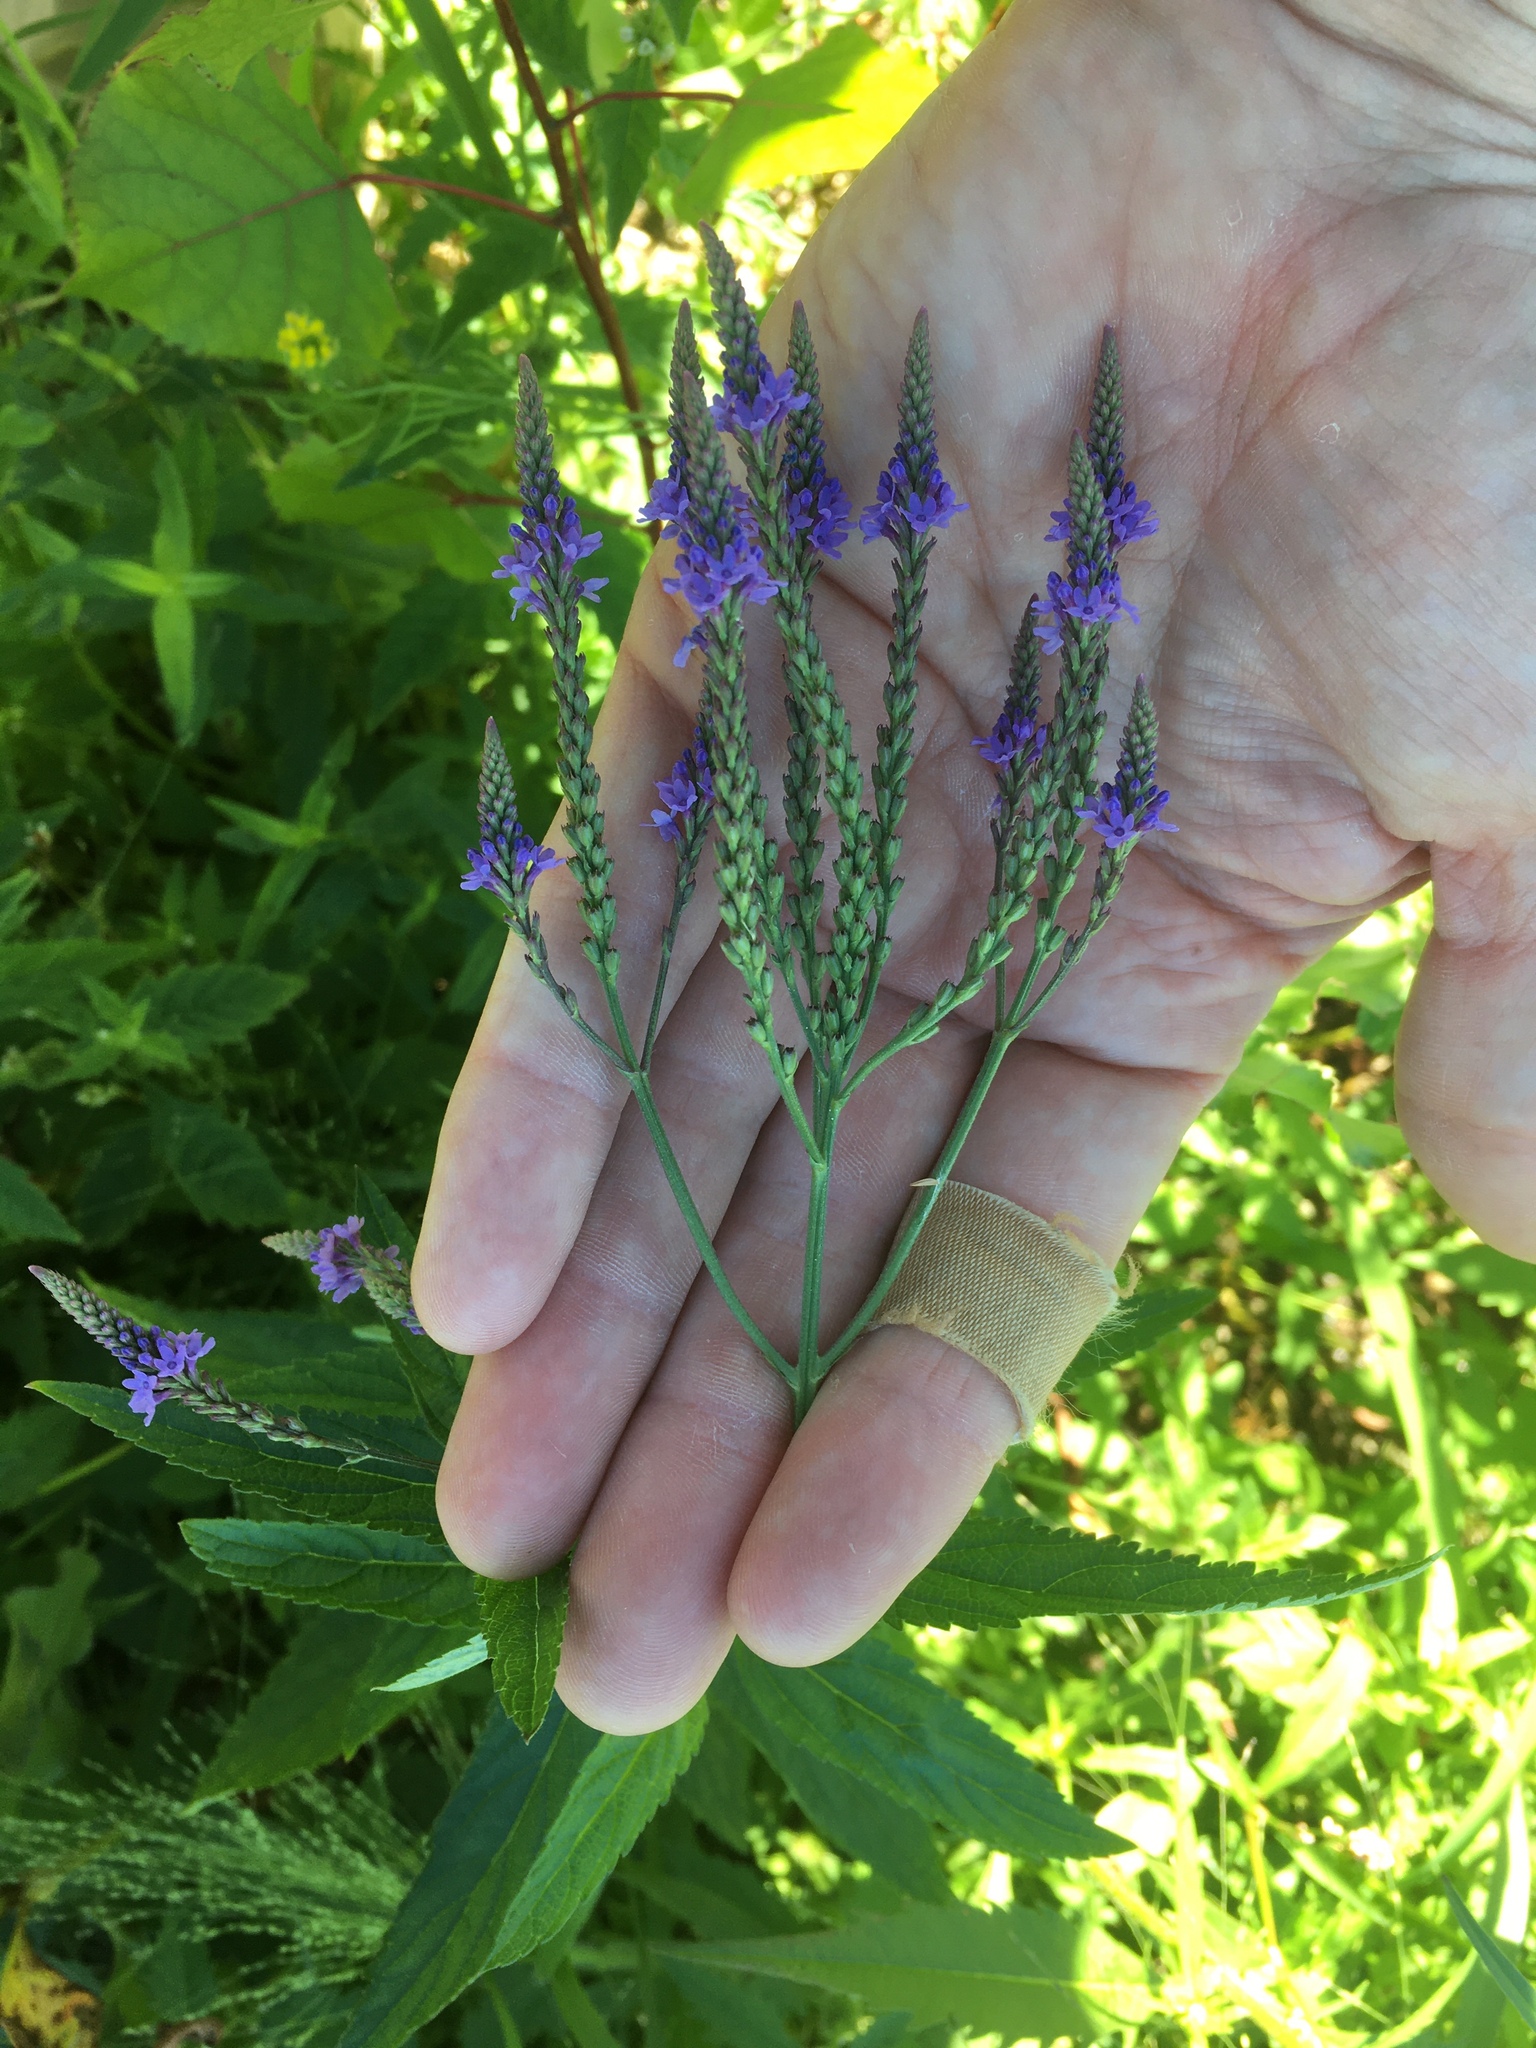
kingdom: Plantae
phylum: Tracheophyta
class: Magnoliopsida
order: Lamiales
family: Verbenaceae
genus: Verbena
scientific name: Verbena hastata
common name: American blue vervain
